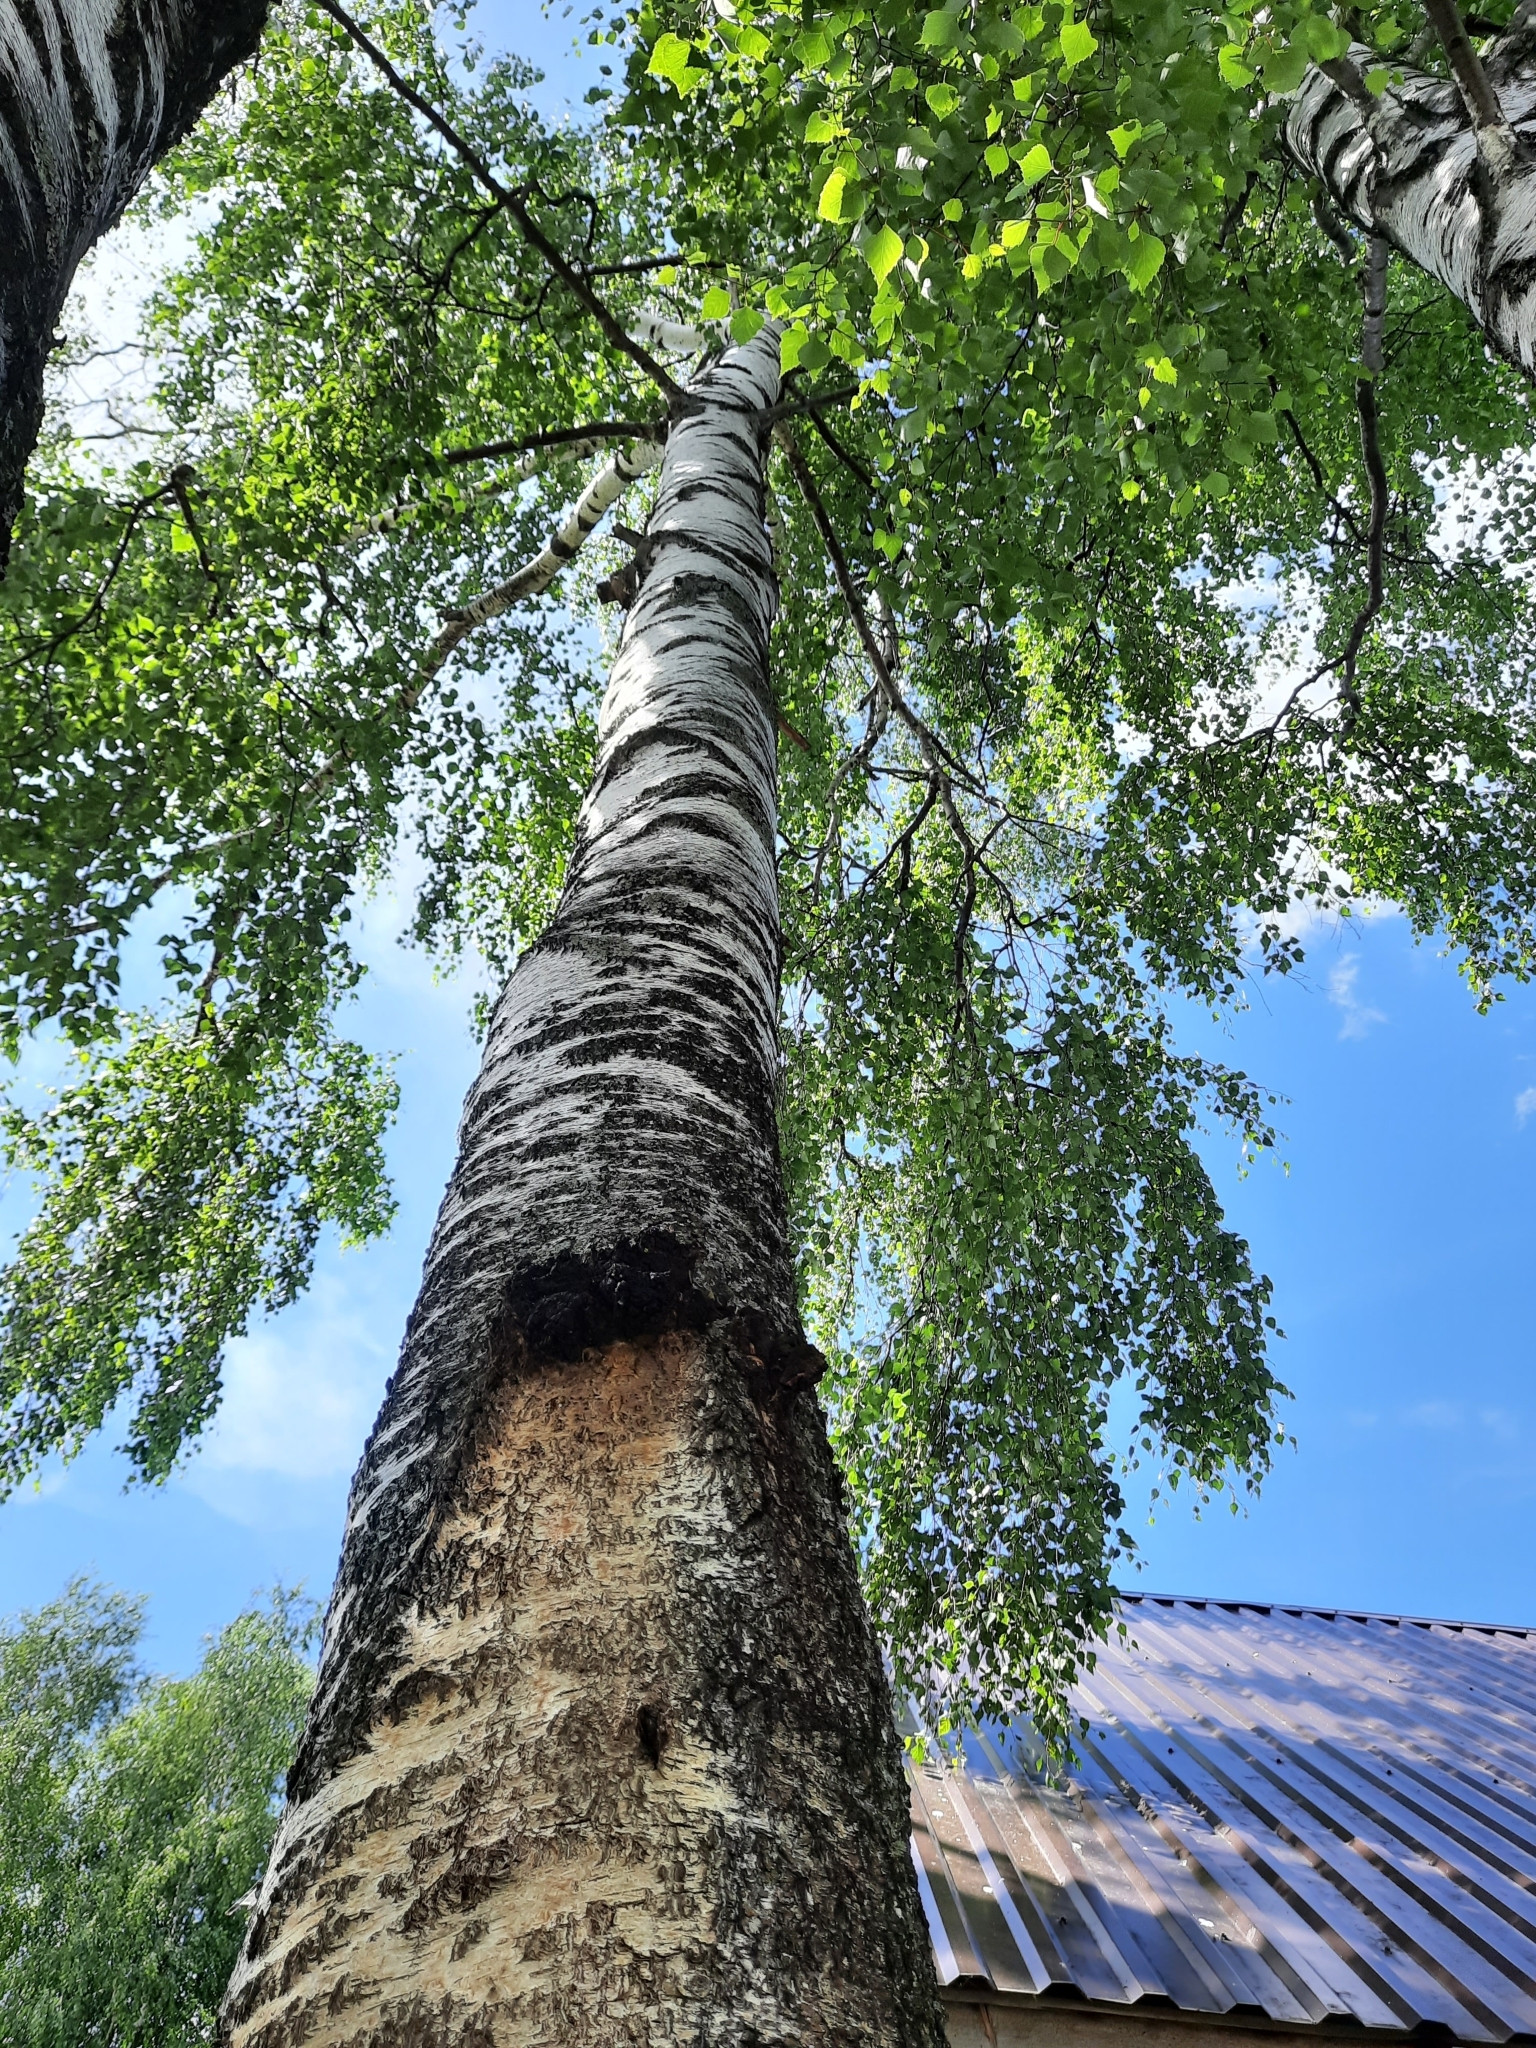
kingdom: Fungi
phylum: Basidiomycota
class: Agaricomycetes
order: Hymenochaetales
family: Hymenochaetaceae
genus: Inonotus
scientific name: Inonotus obliquus
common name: Chaga
